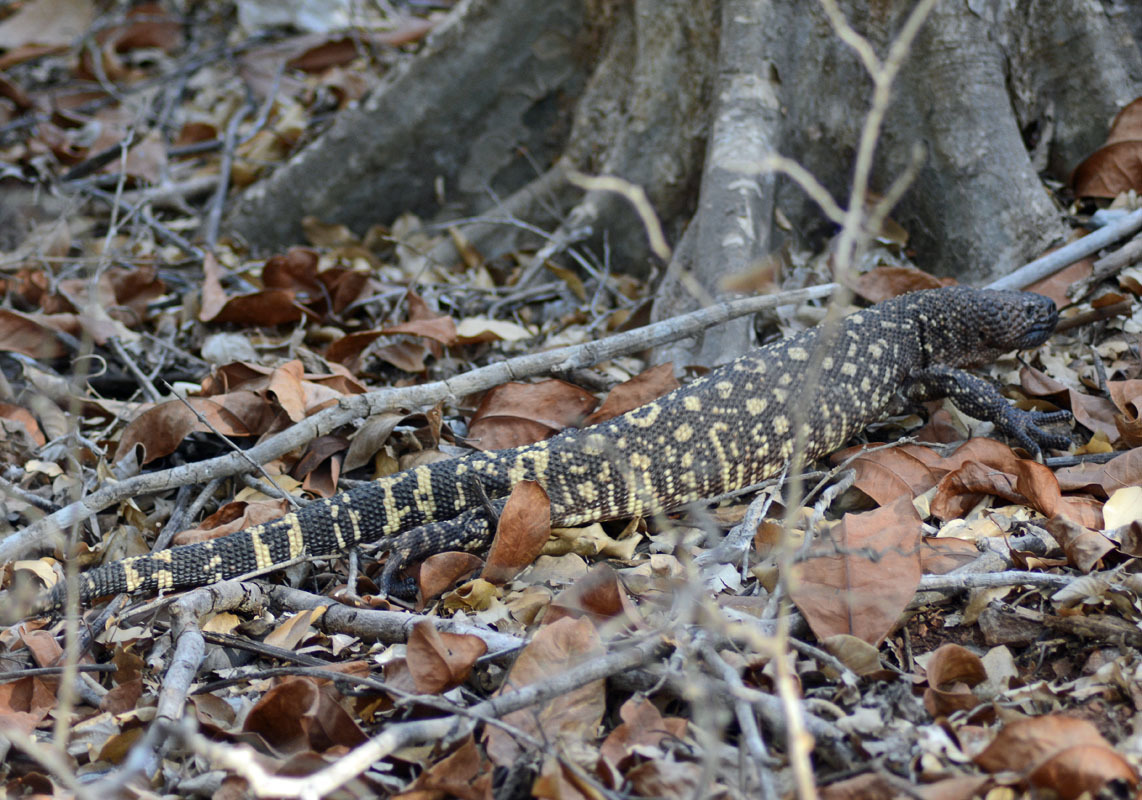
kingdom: Animalia
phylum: Chordata
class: Squamata
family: Helodermatidae
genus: Heloderma
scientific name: Heloderma horridum
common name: Mexican beaded lizard
